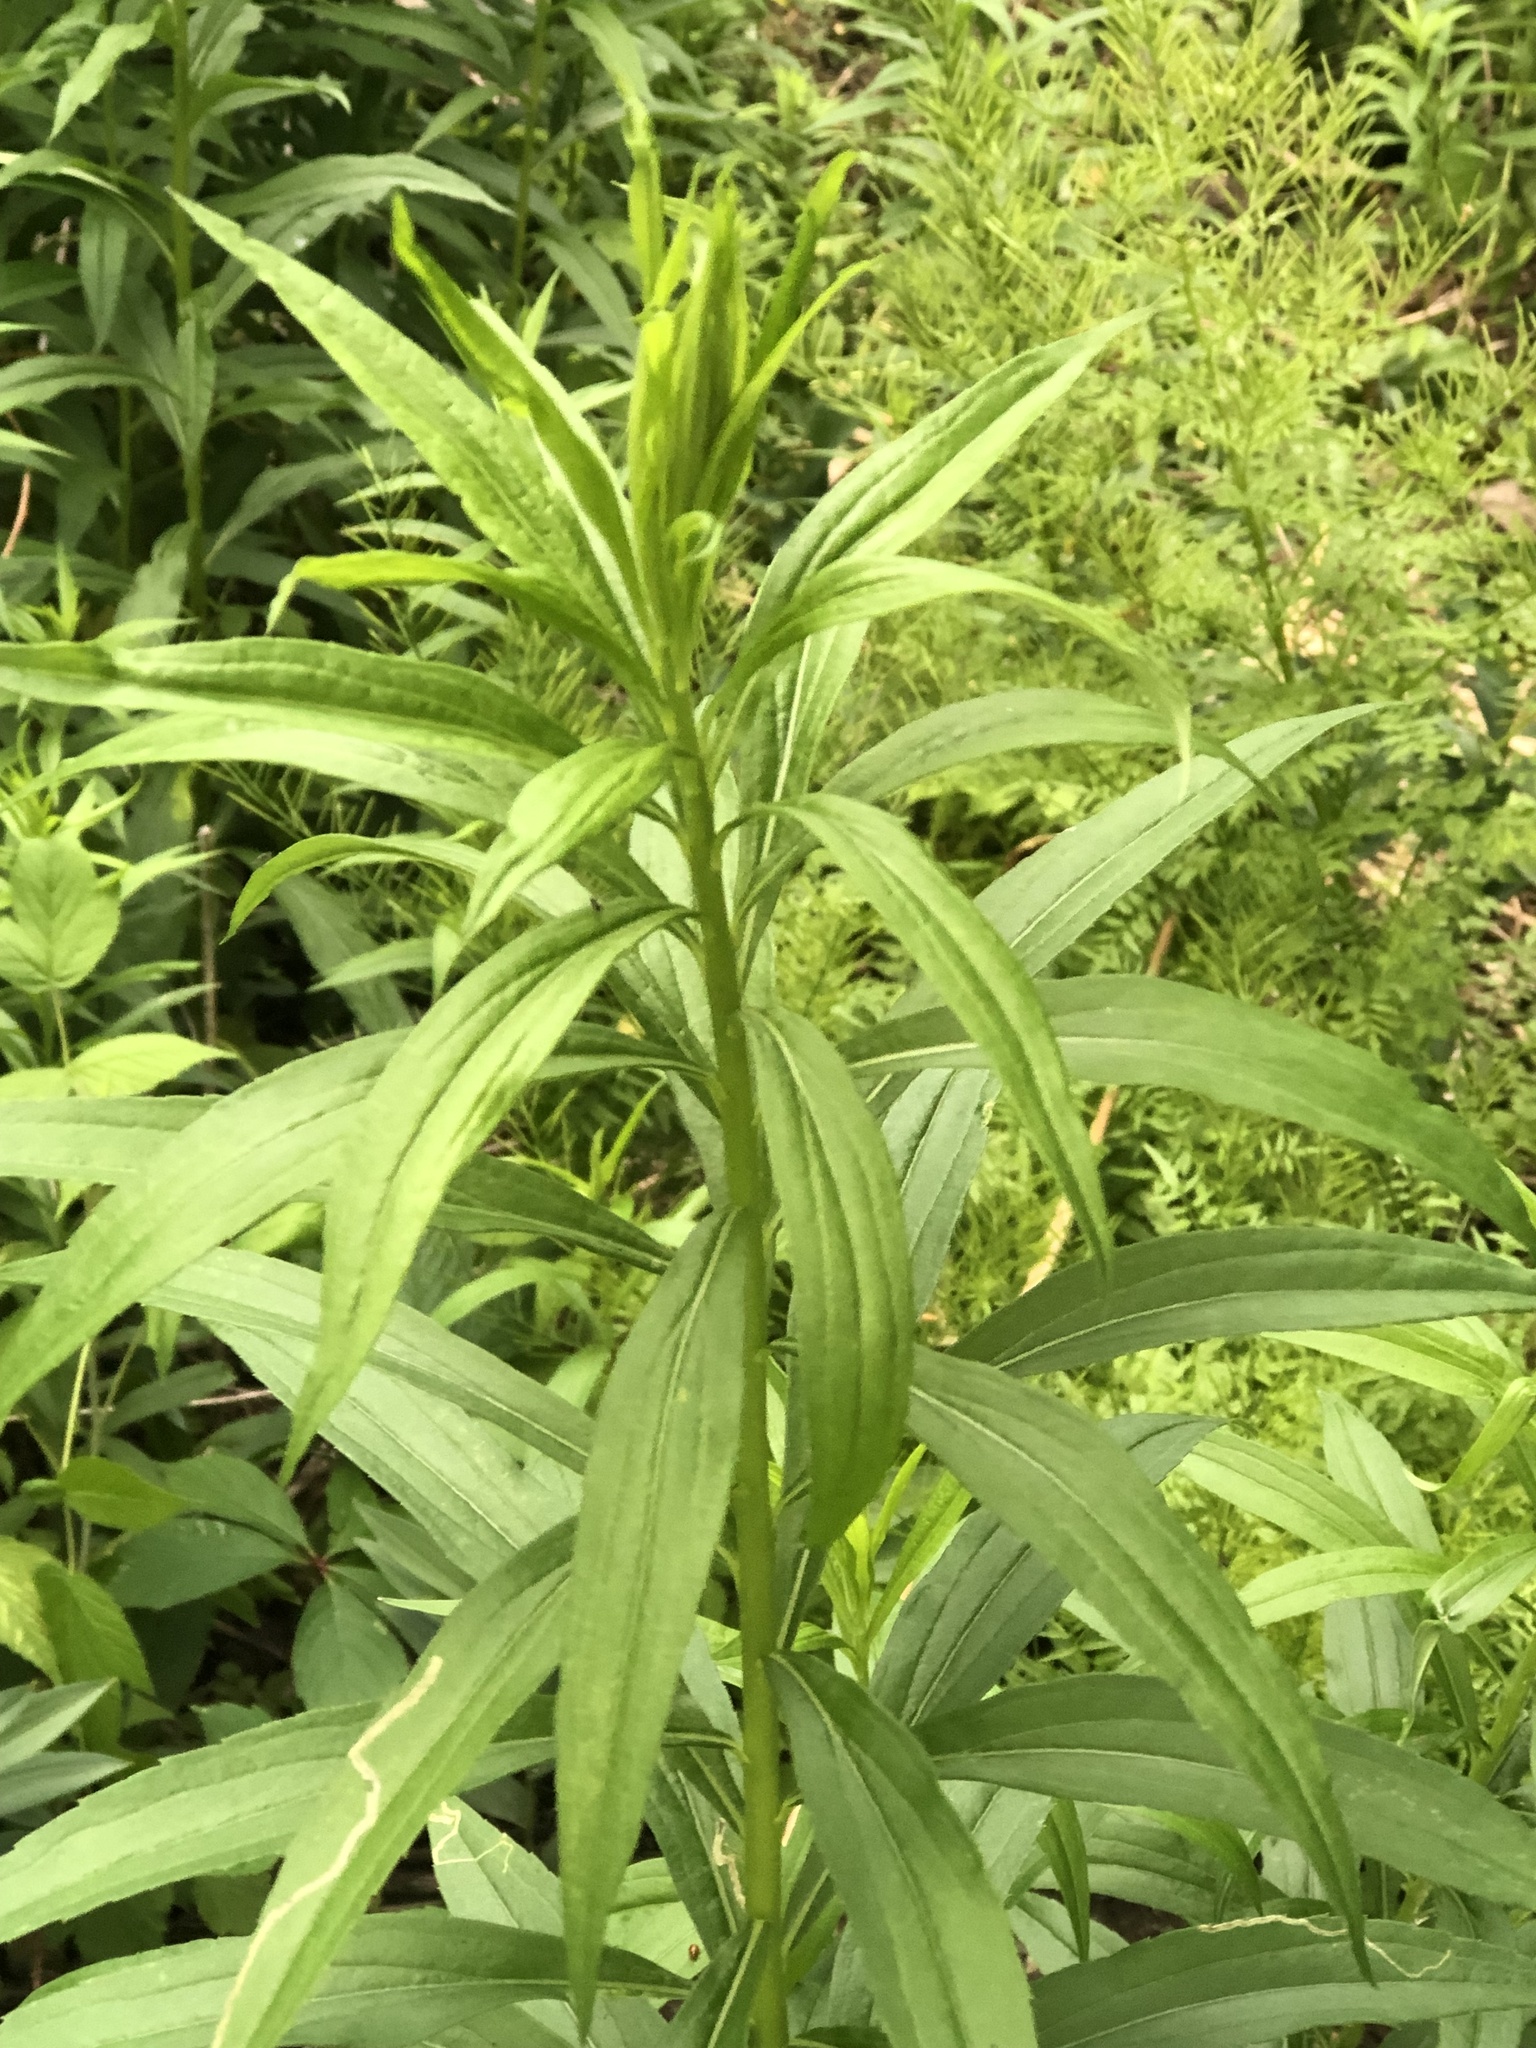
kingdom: Plantae
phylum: Tracheophyta
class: Magnoliopsida
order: Asterales
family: Asteraceae
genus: Solidago
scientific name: Solidago altissima
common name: Late goldenrod
